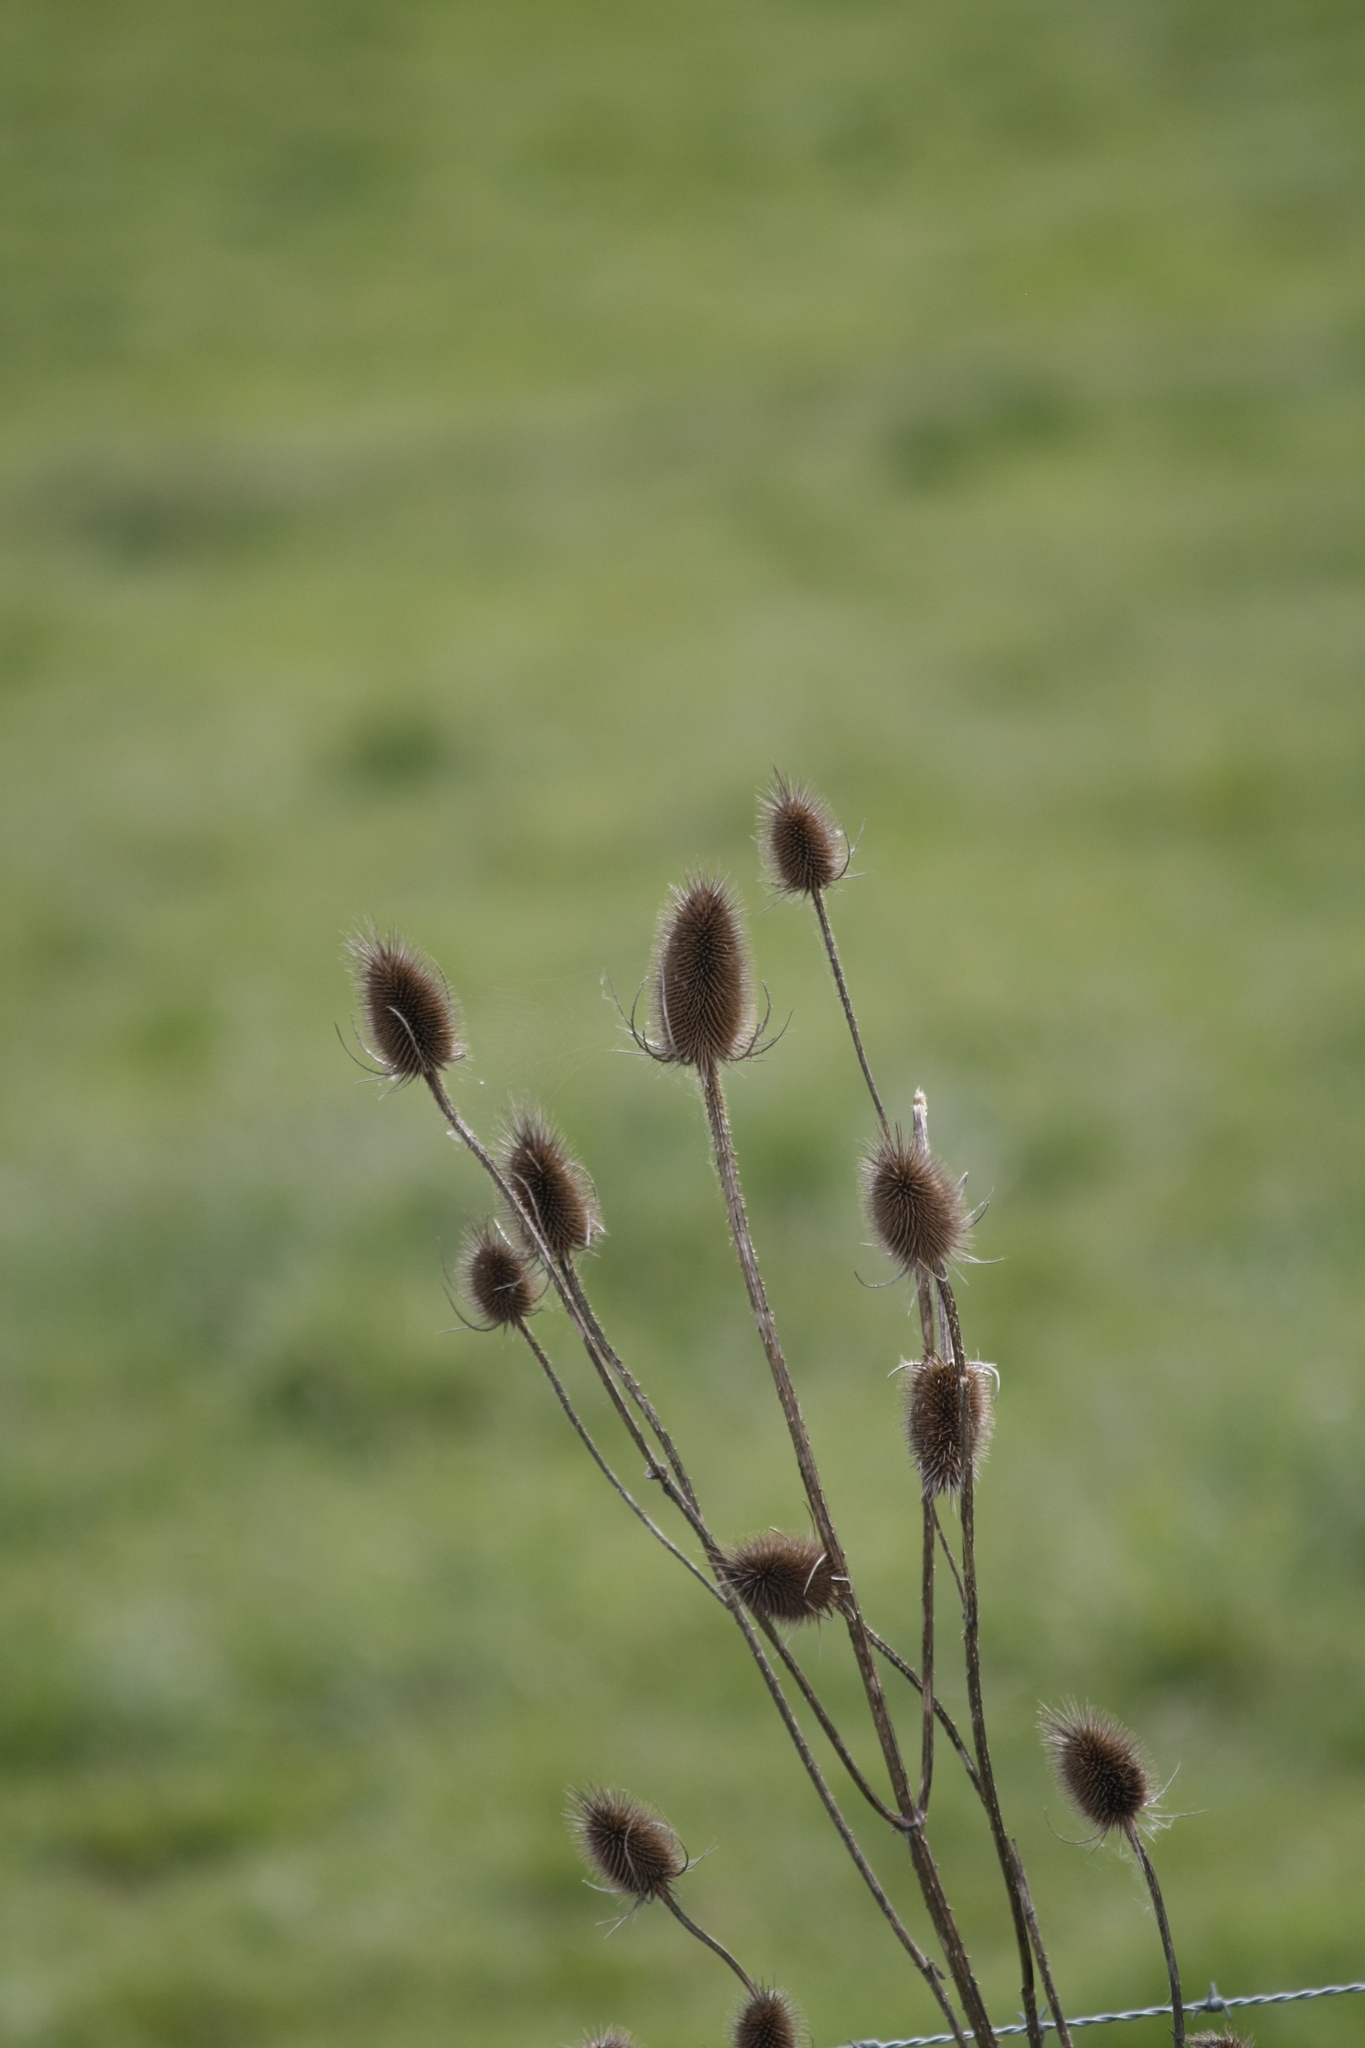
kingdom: Plantae
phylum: Tracheophyta
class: Magnoliopsida
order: Dipsacales
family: Caprifoliaceae
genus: Dipsacus
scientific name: Dipsacus fullonum
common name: Teasel
